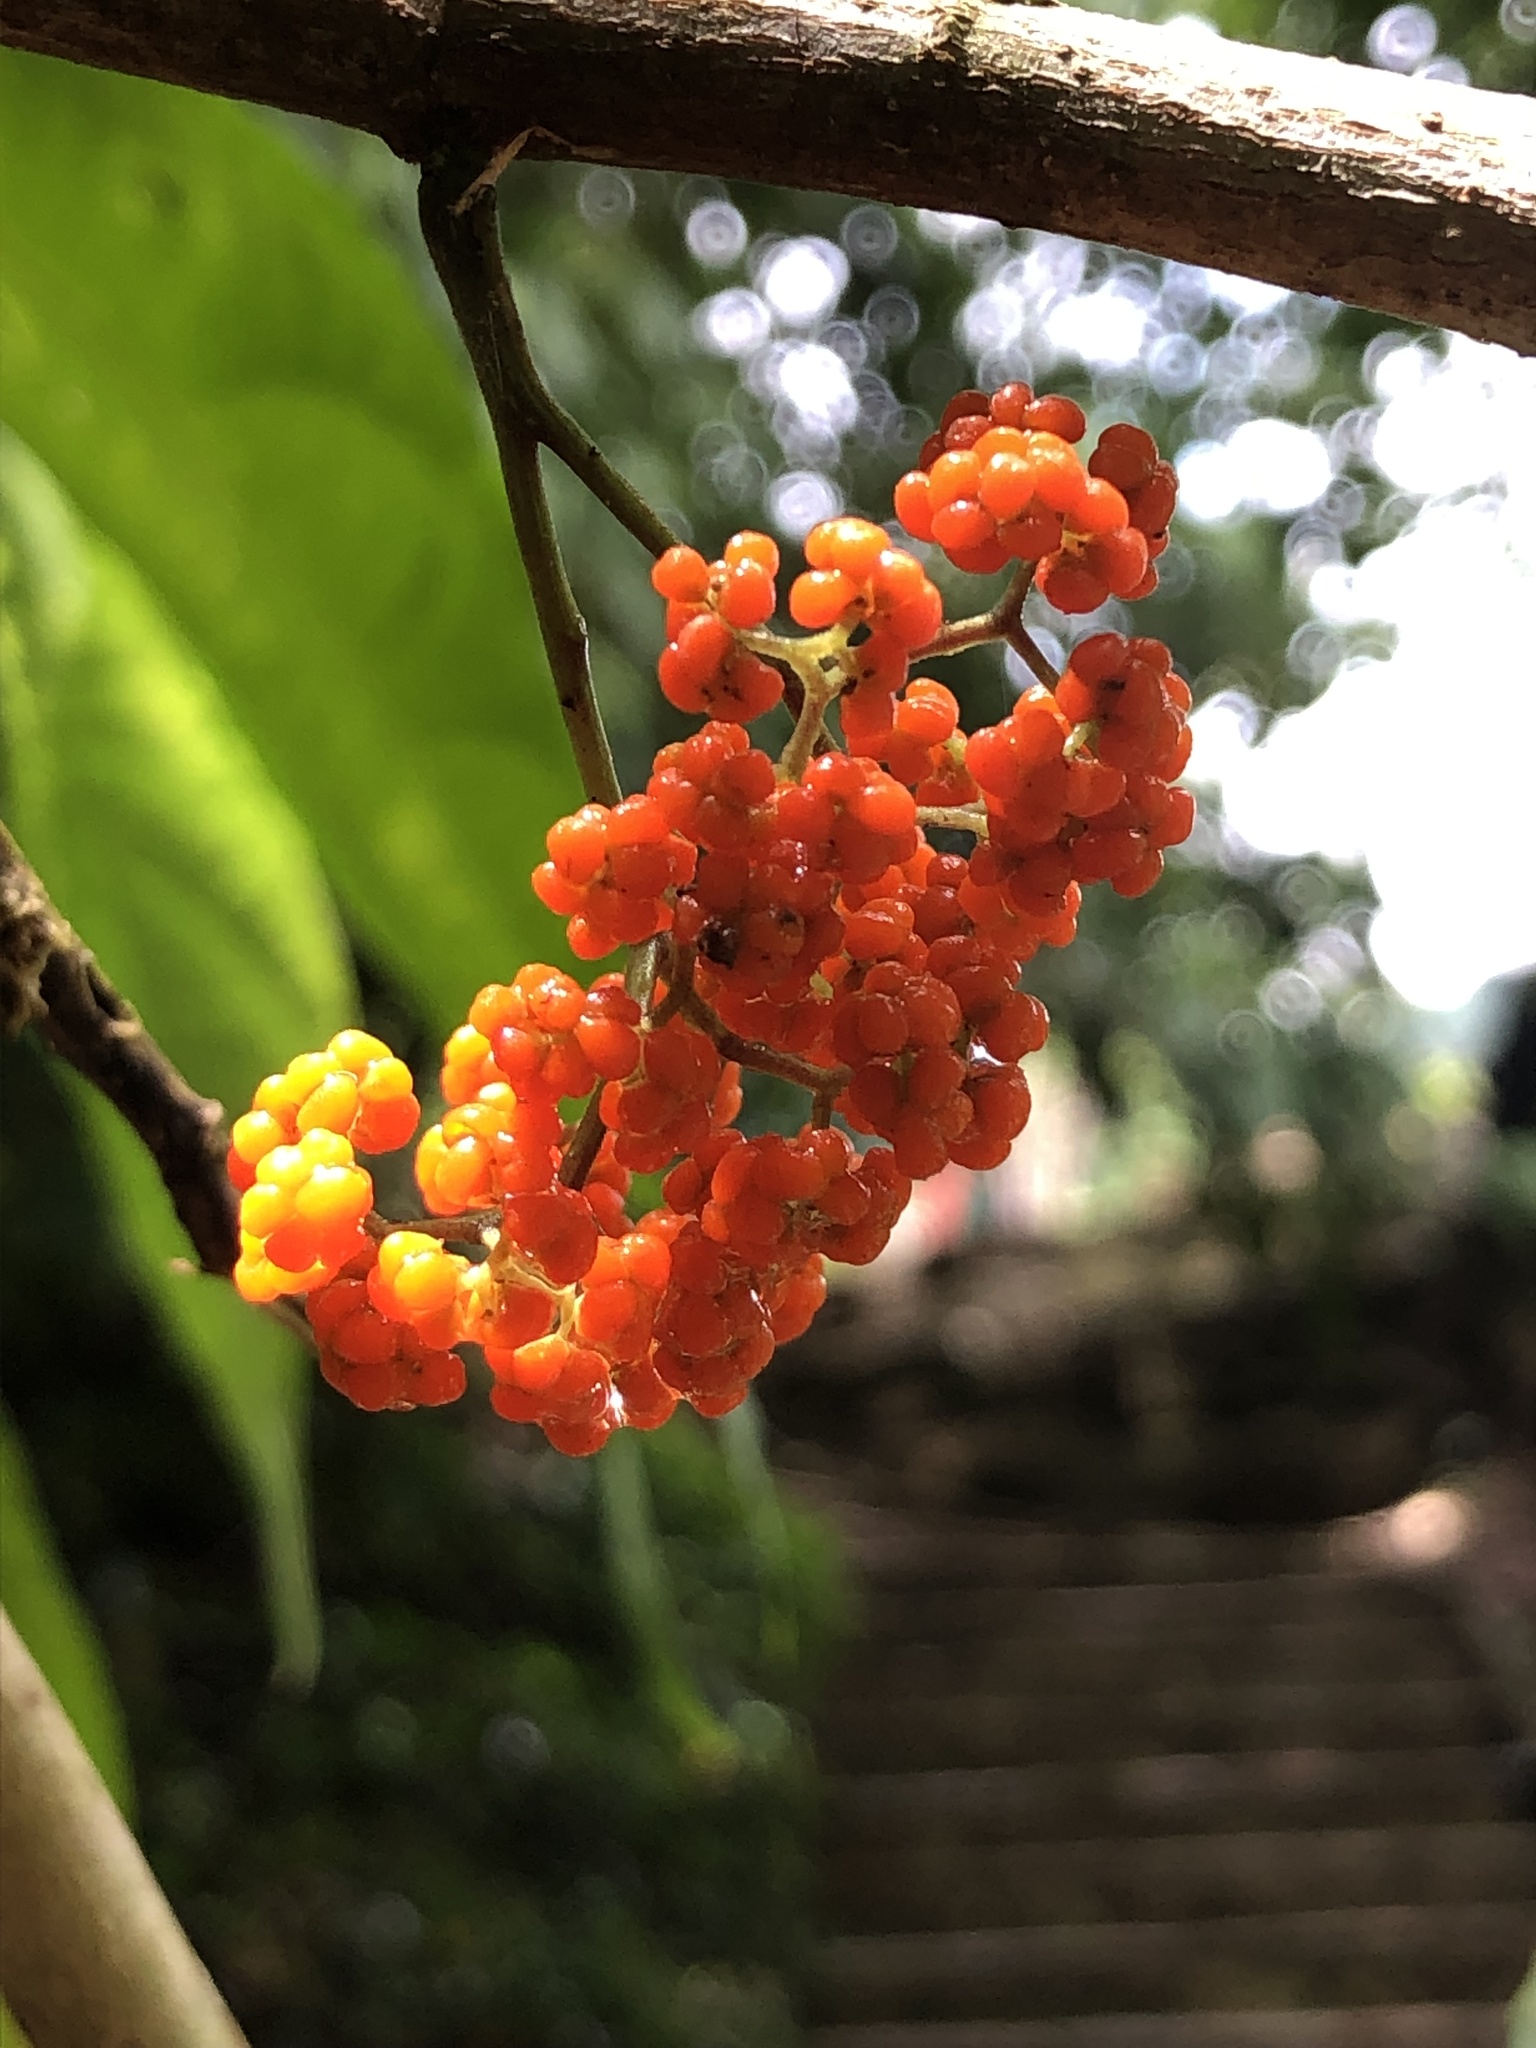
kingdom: Plantae
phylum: Tracheophyta
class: Magnoliopsida
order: Rosales
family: Urticaceae
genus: Urera
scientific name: Urera caracasana
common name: Flameberry
